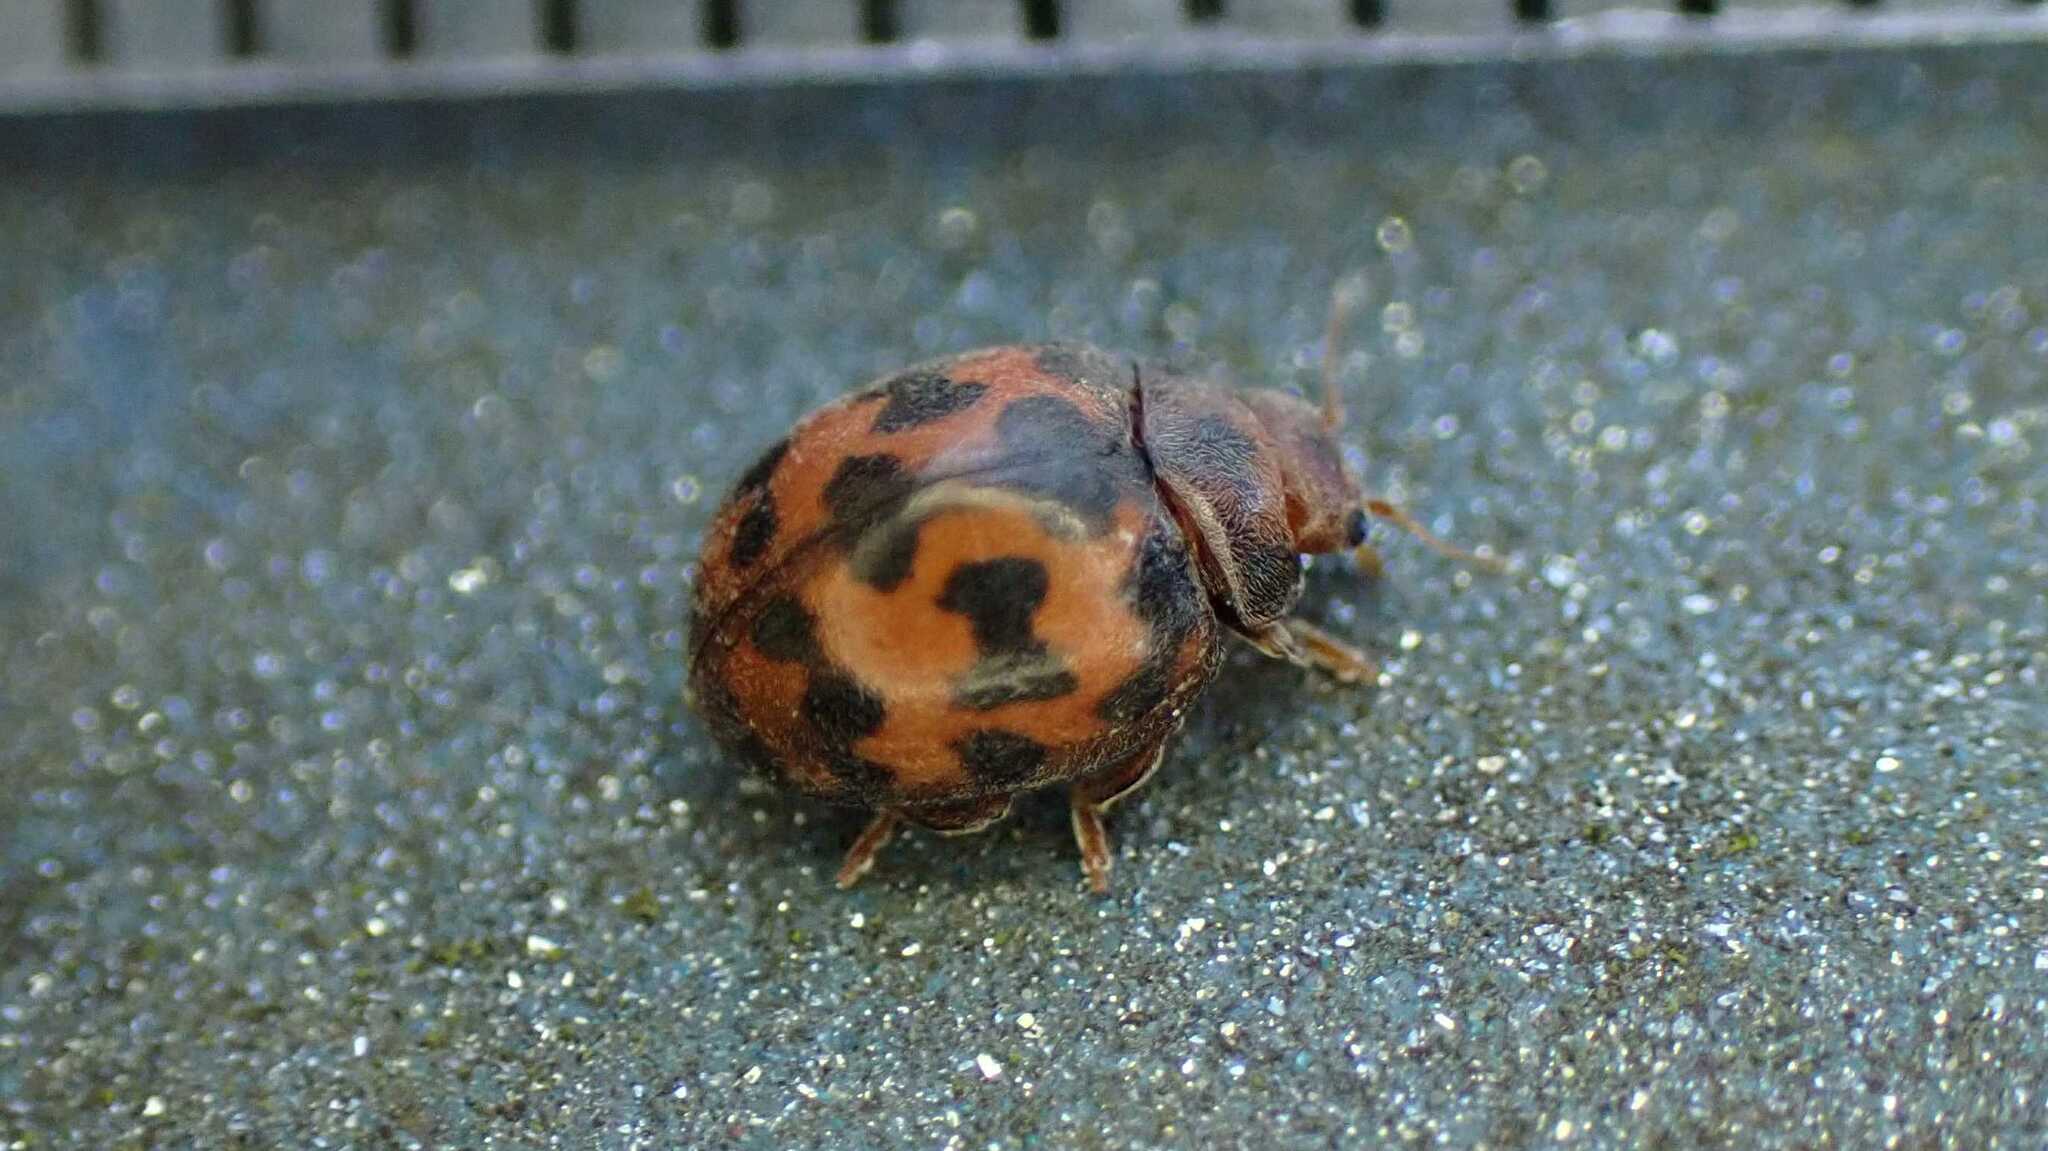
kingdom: Animalia
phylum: Arthropoda
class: Insecta
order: Coleoptera
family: Coccinellidae
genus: Subcoccinella
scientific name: Subcoccinella vigintiquatuorpunctata
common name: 24-spot ladybird
